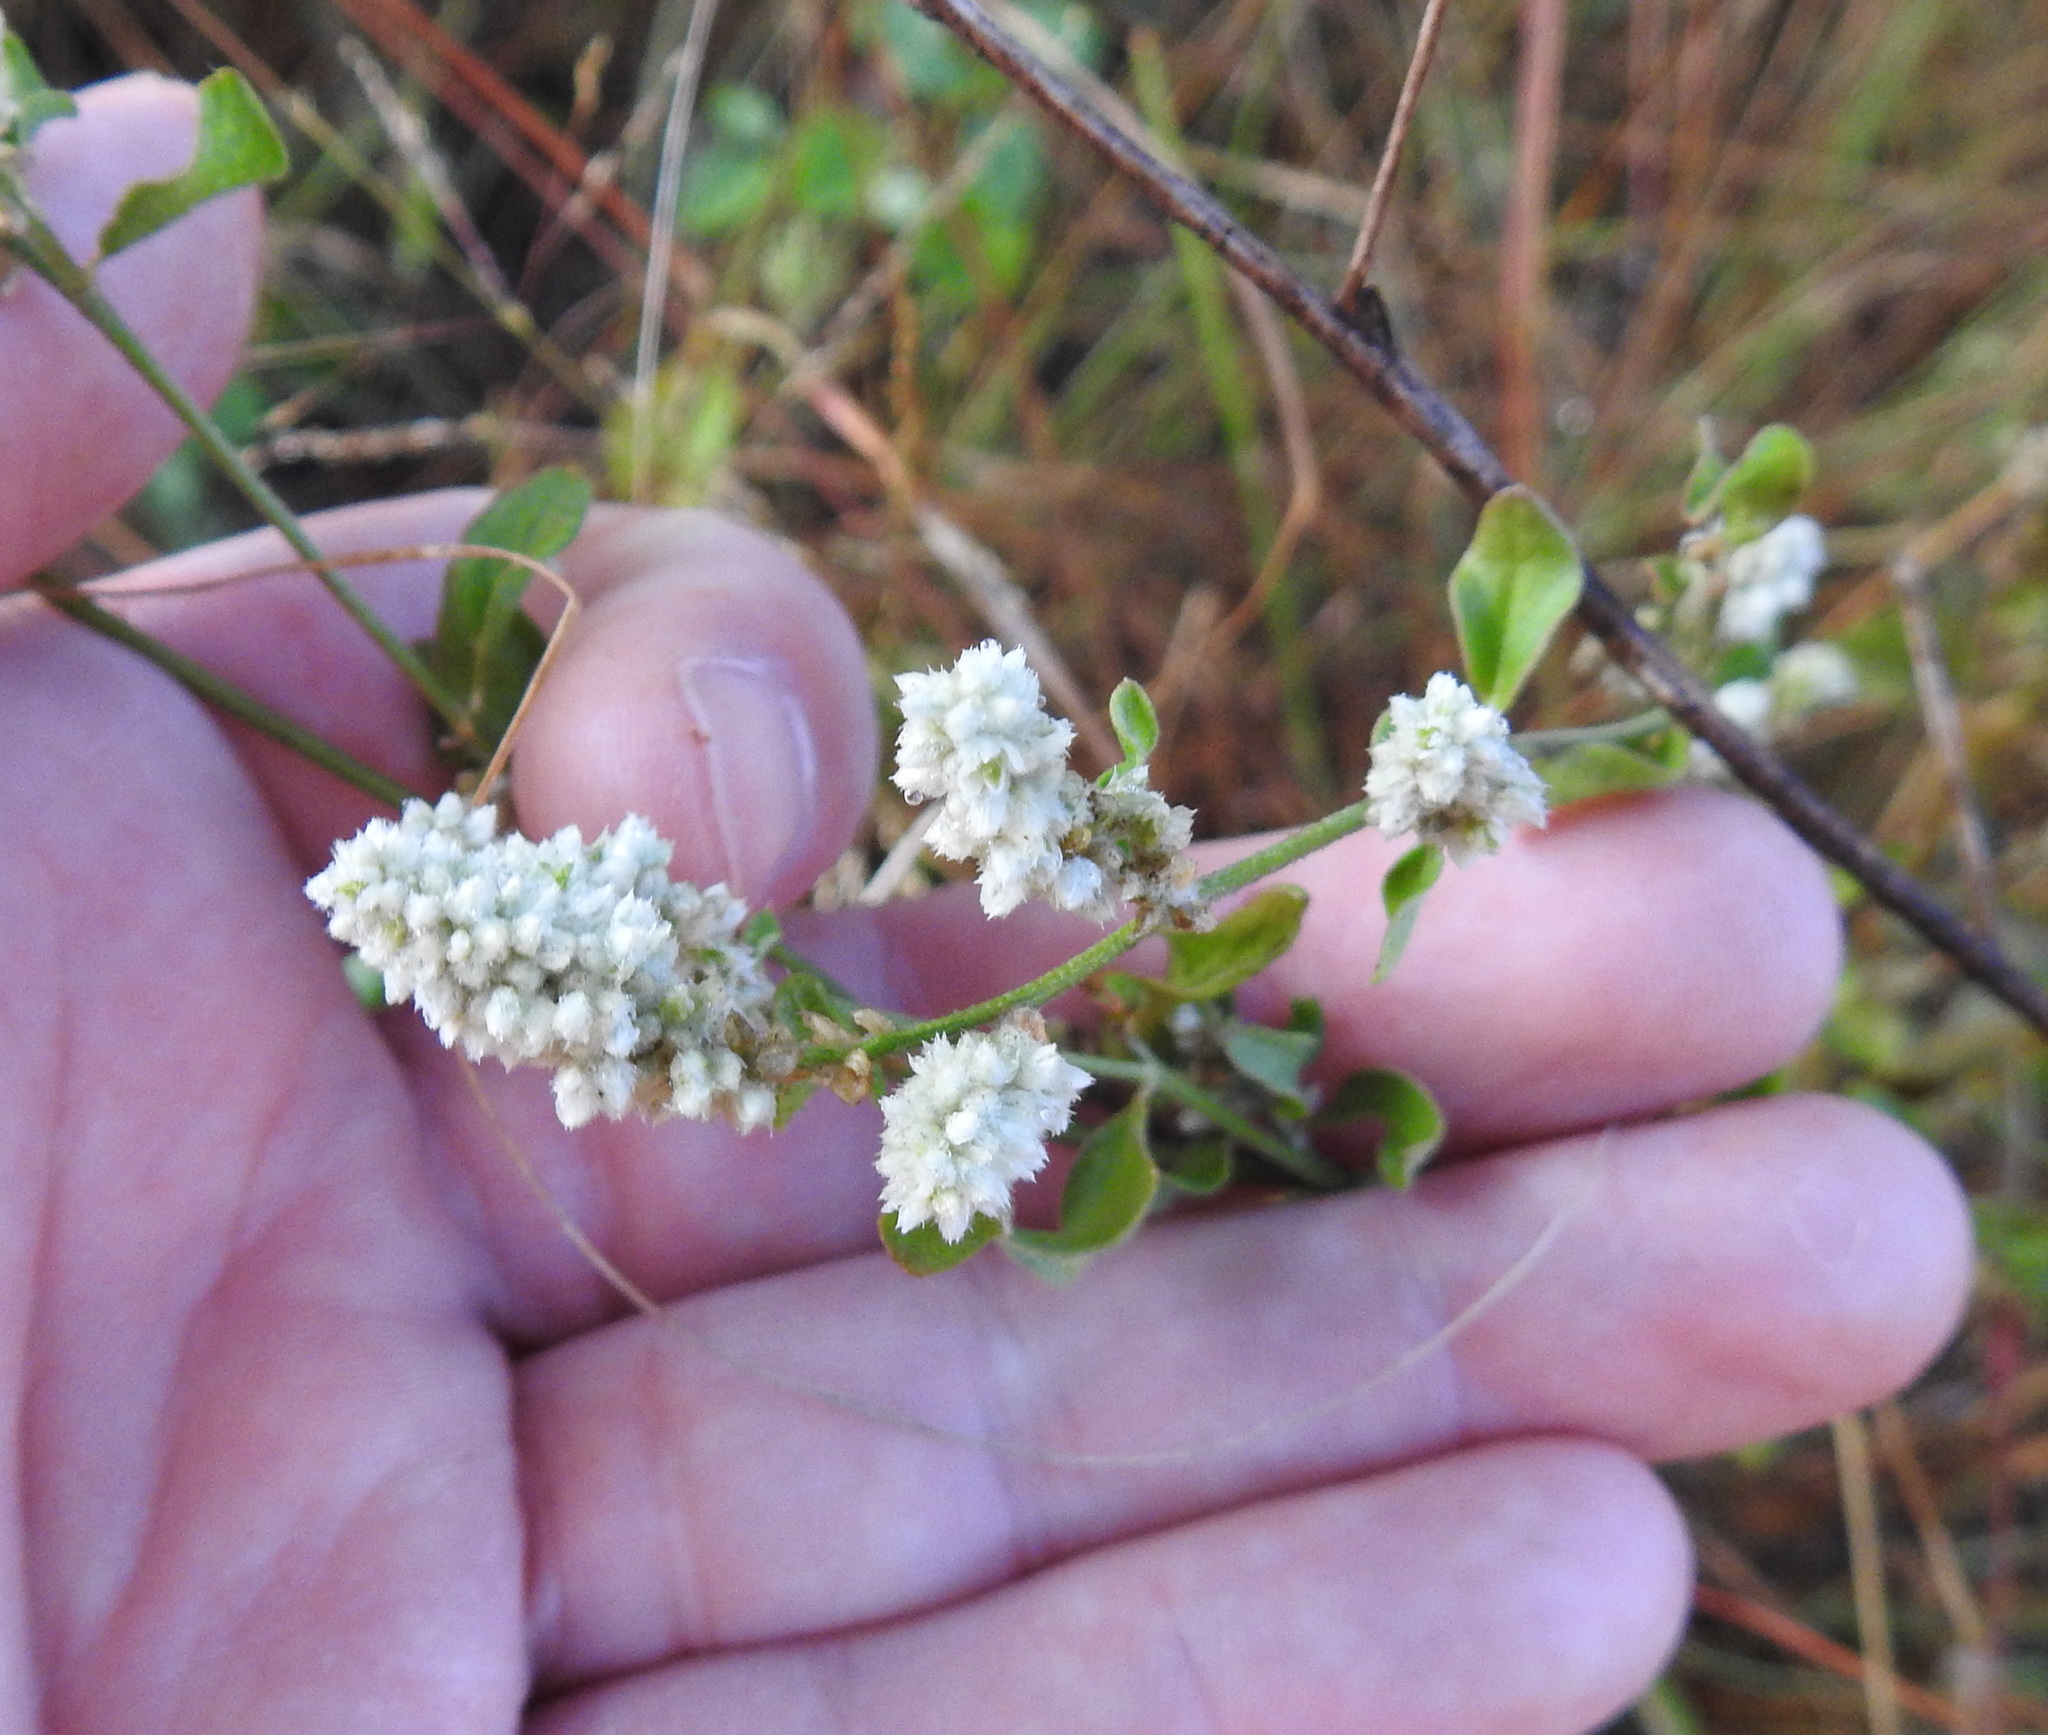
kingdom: Plantae
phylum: Tracheophyta
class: Magnoliopsida
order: Caryophyllales
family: Amaranthaceae
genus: Ouret
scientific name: Ouret leucura
